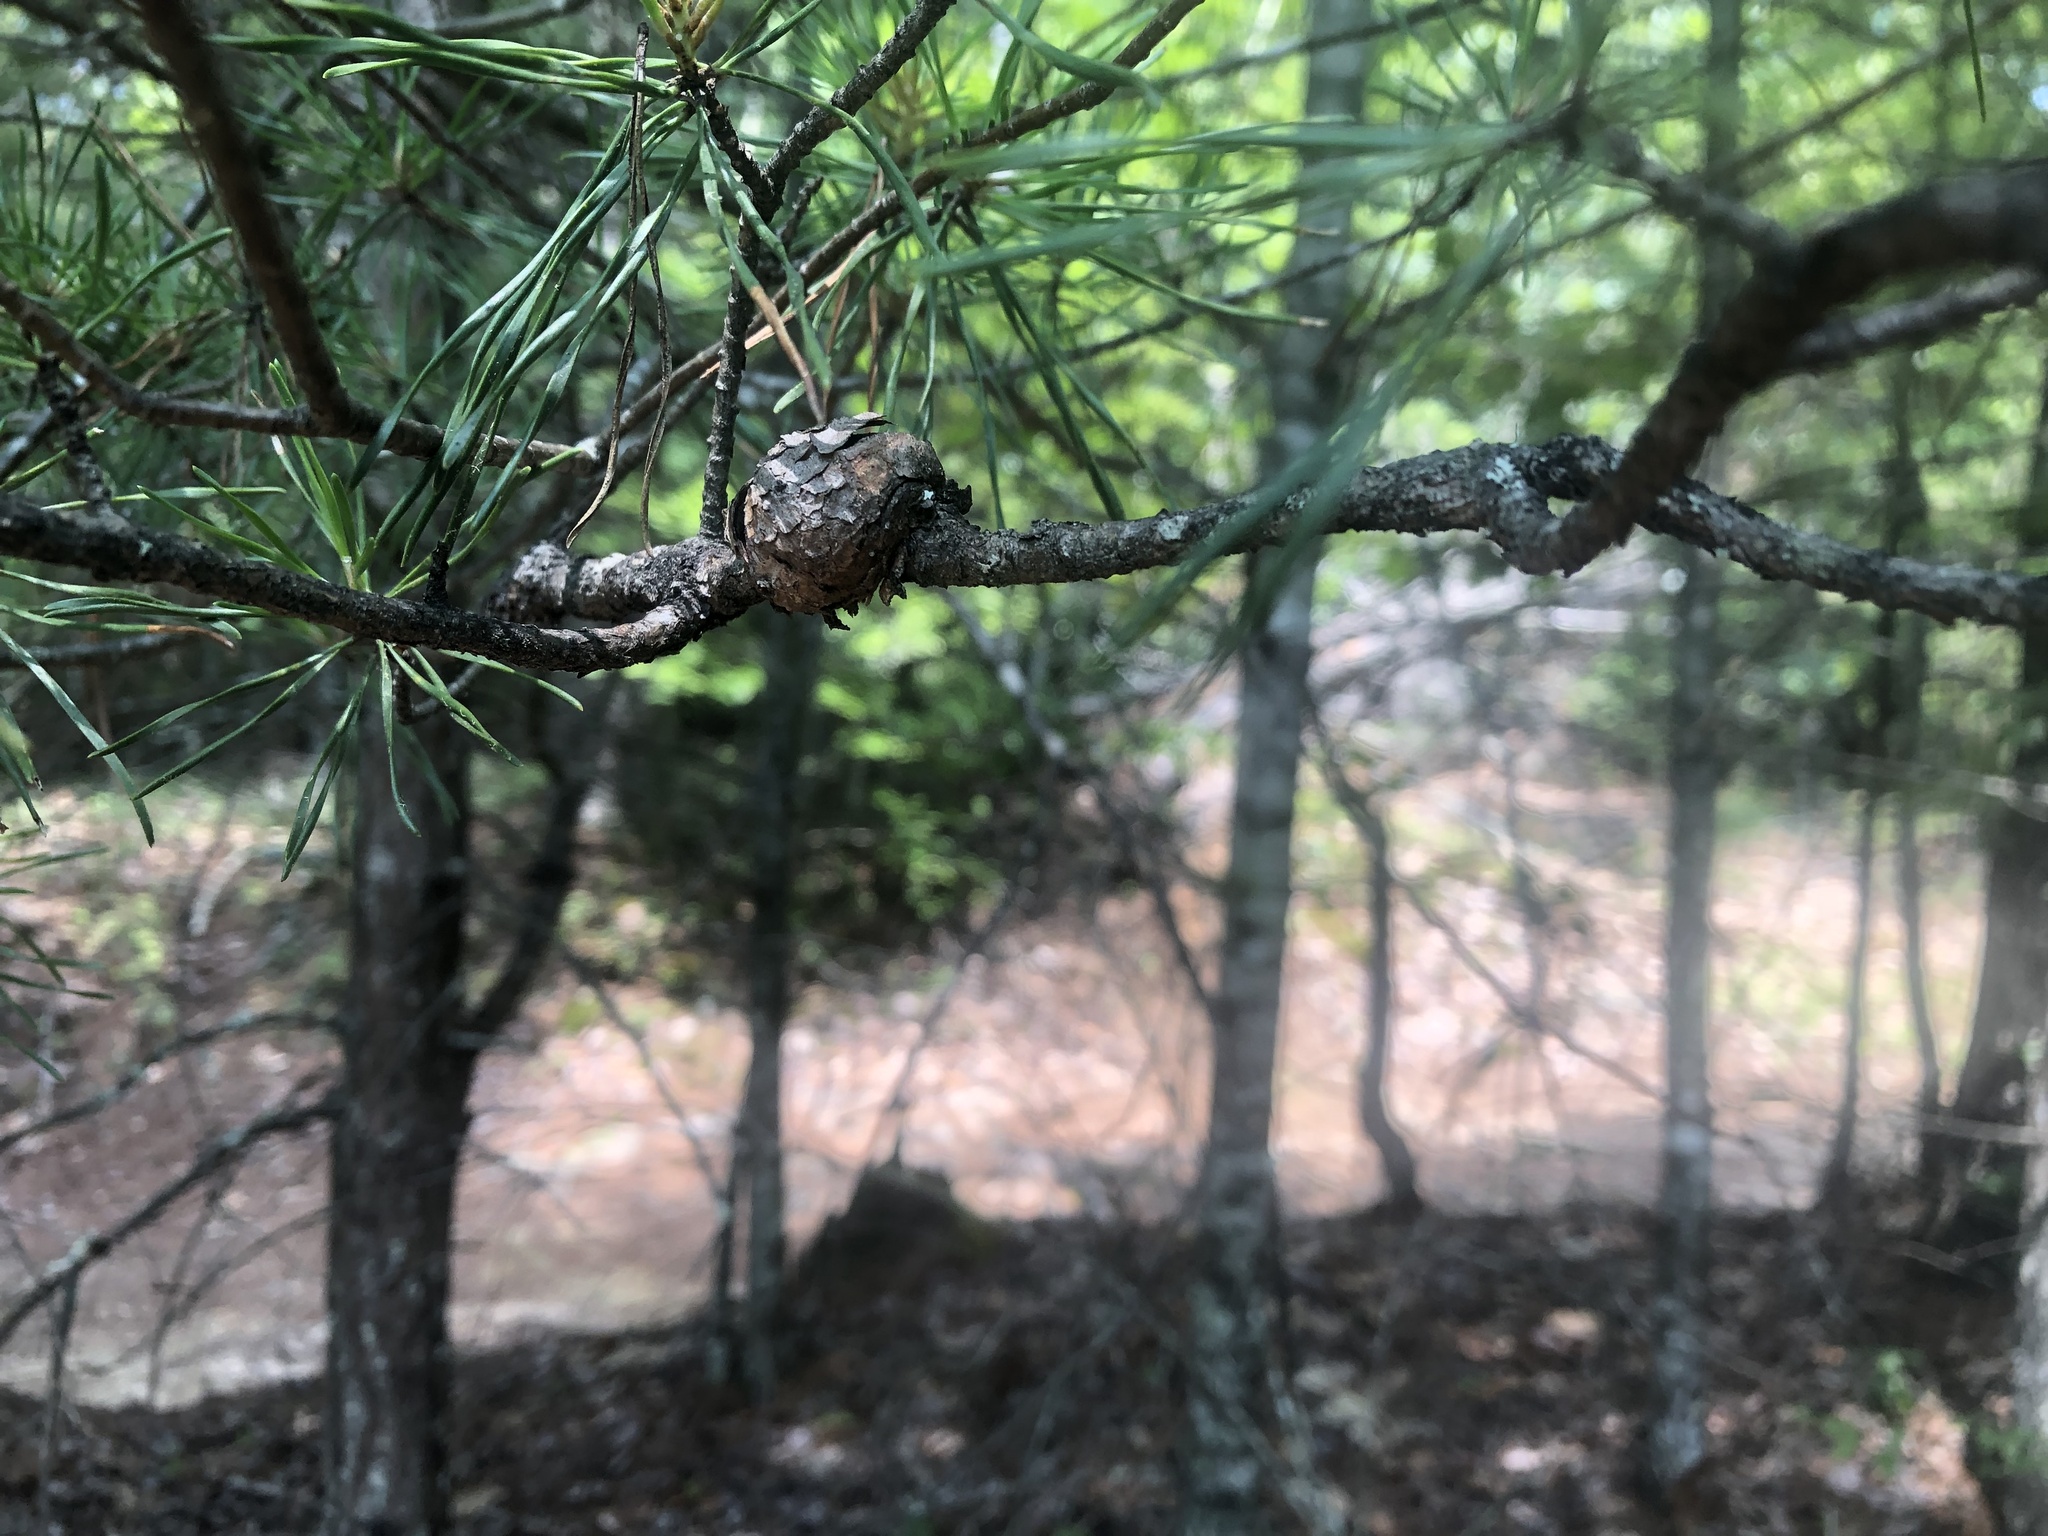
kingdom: Fungi
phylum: Basidiomycota
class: Pucciniomycetes
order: Pucciniales
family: Cronartiaceae
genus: Cronartium
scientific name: Cronartium quercuum
